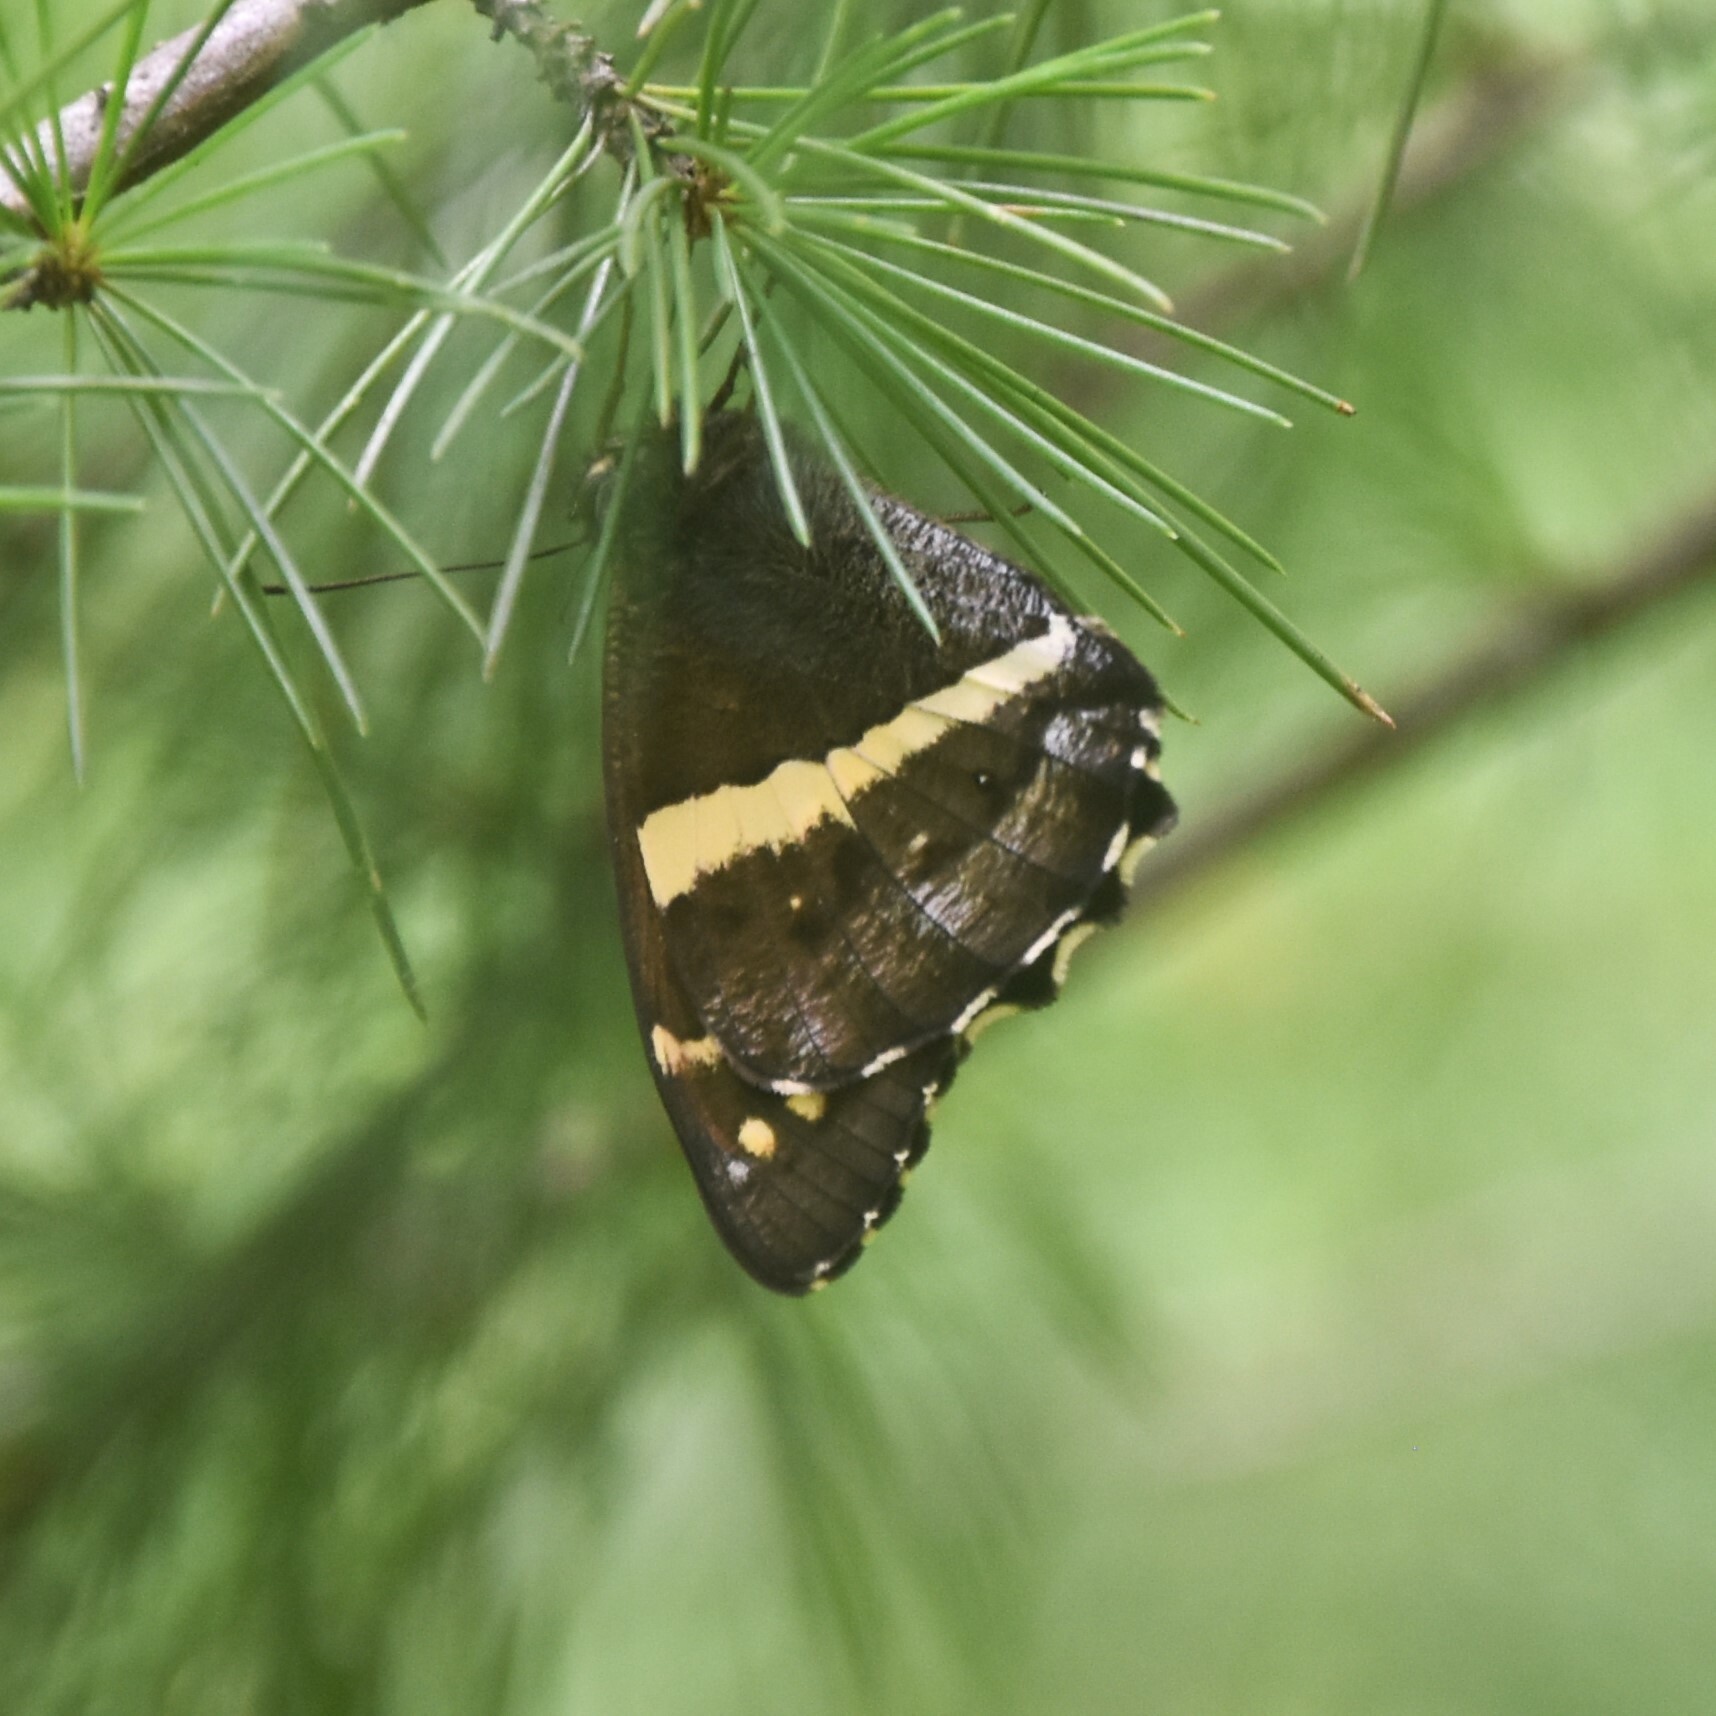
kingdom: Animalia
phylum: Arthropoda
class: Insecta
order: Lepidoptera
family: Nymphalidae
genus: Satyrus
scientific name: Satyrus Aulocera swaha
